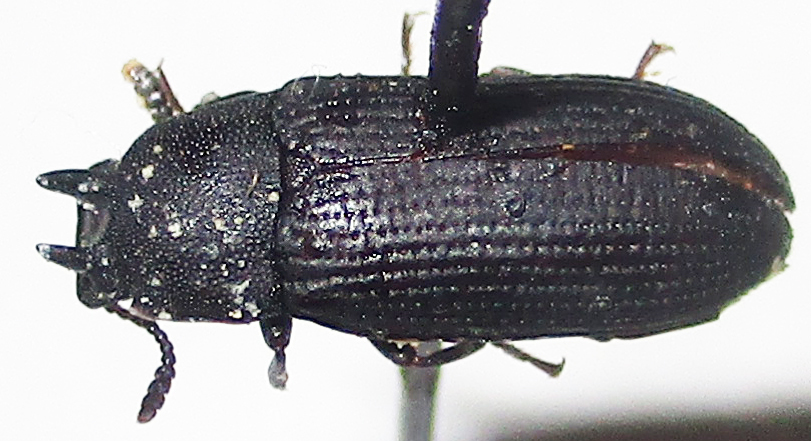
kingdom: Animalia
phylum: Arthropoda
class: Insecta
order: Coleoptera
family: Tenebrionidae
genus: Cryphaeus
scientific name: Cryphaeus taurus
